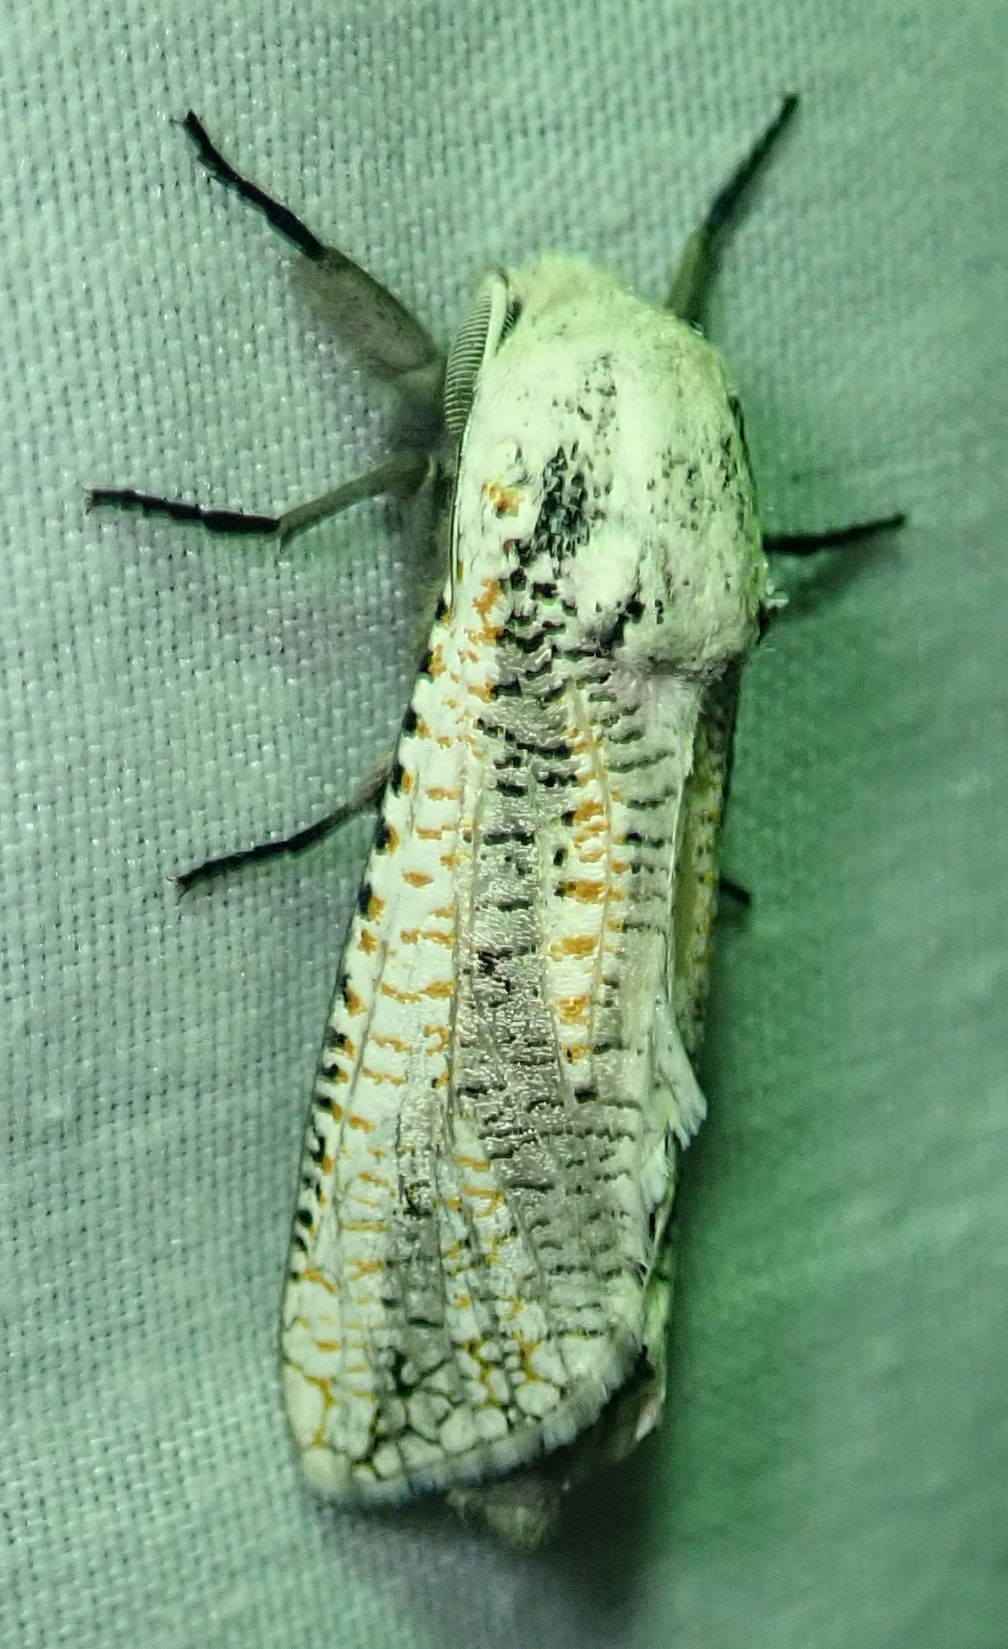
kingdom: Animalia
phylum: Arthropoda
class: Insecta
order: Lepidoptera
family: Cossidae
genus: Azygophleps
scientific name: Azygophleps inclusa
